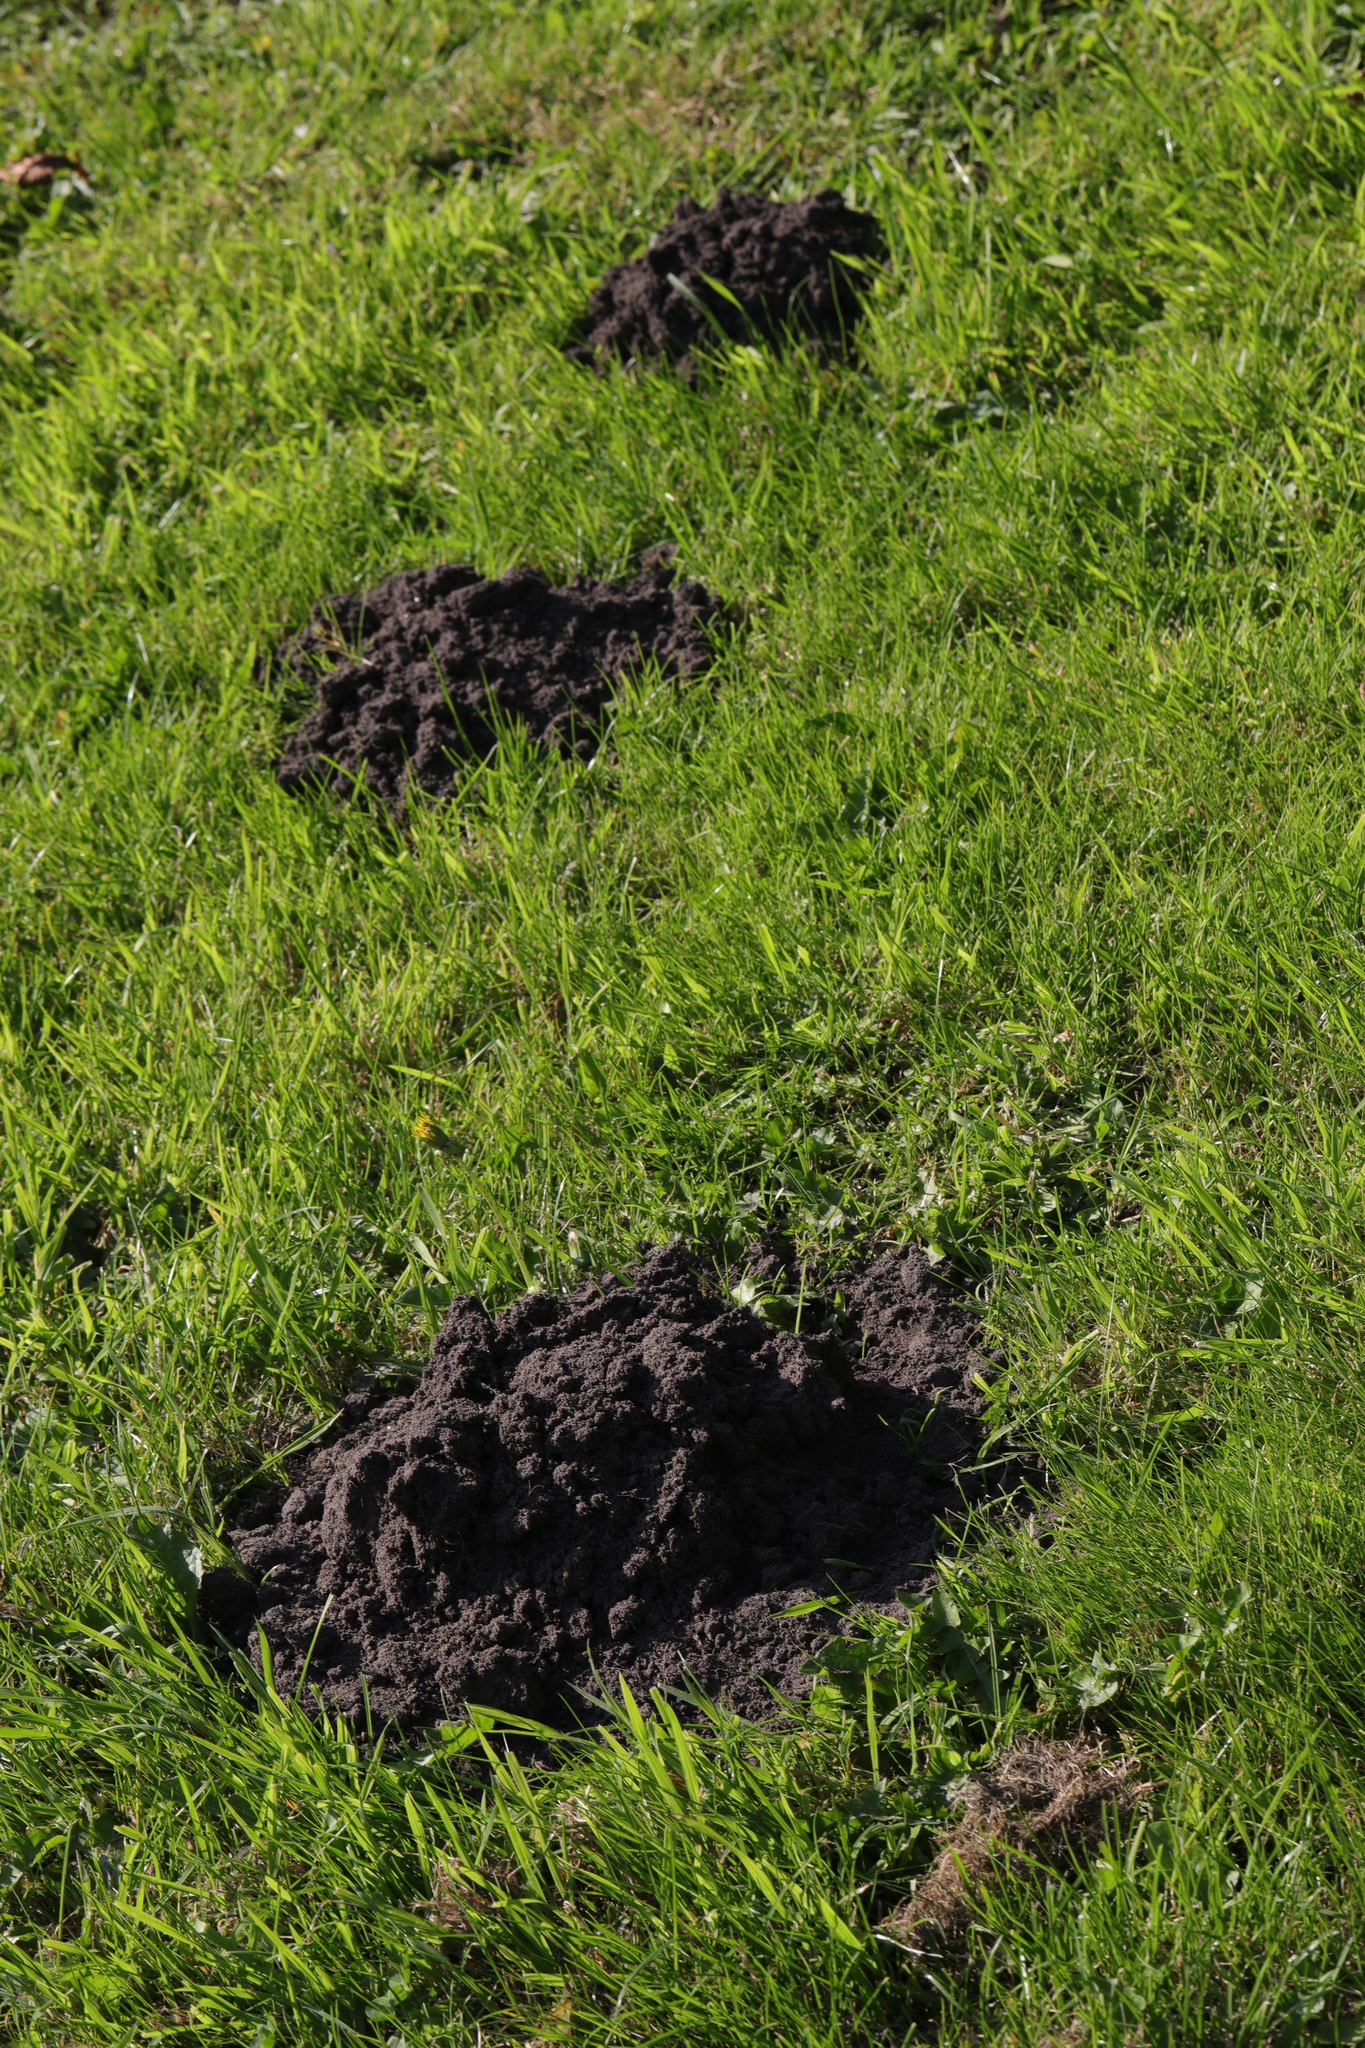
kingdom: Animalia
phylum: Chordata
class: Mammalia
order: Soricomorpha
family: Talpidae
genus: Talpa
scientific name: Talpa europaea
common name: European mole
